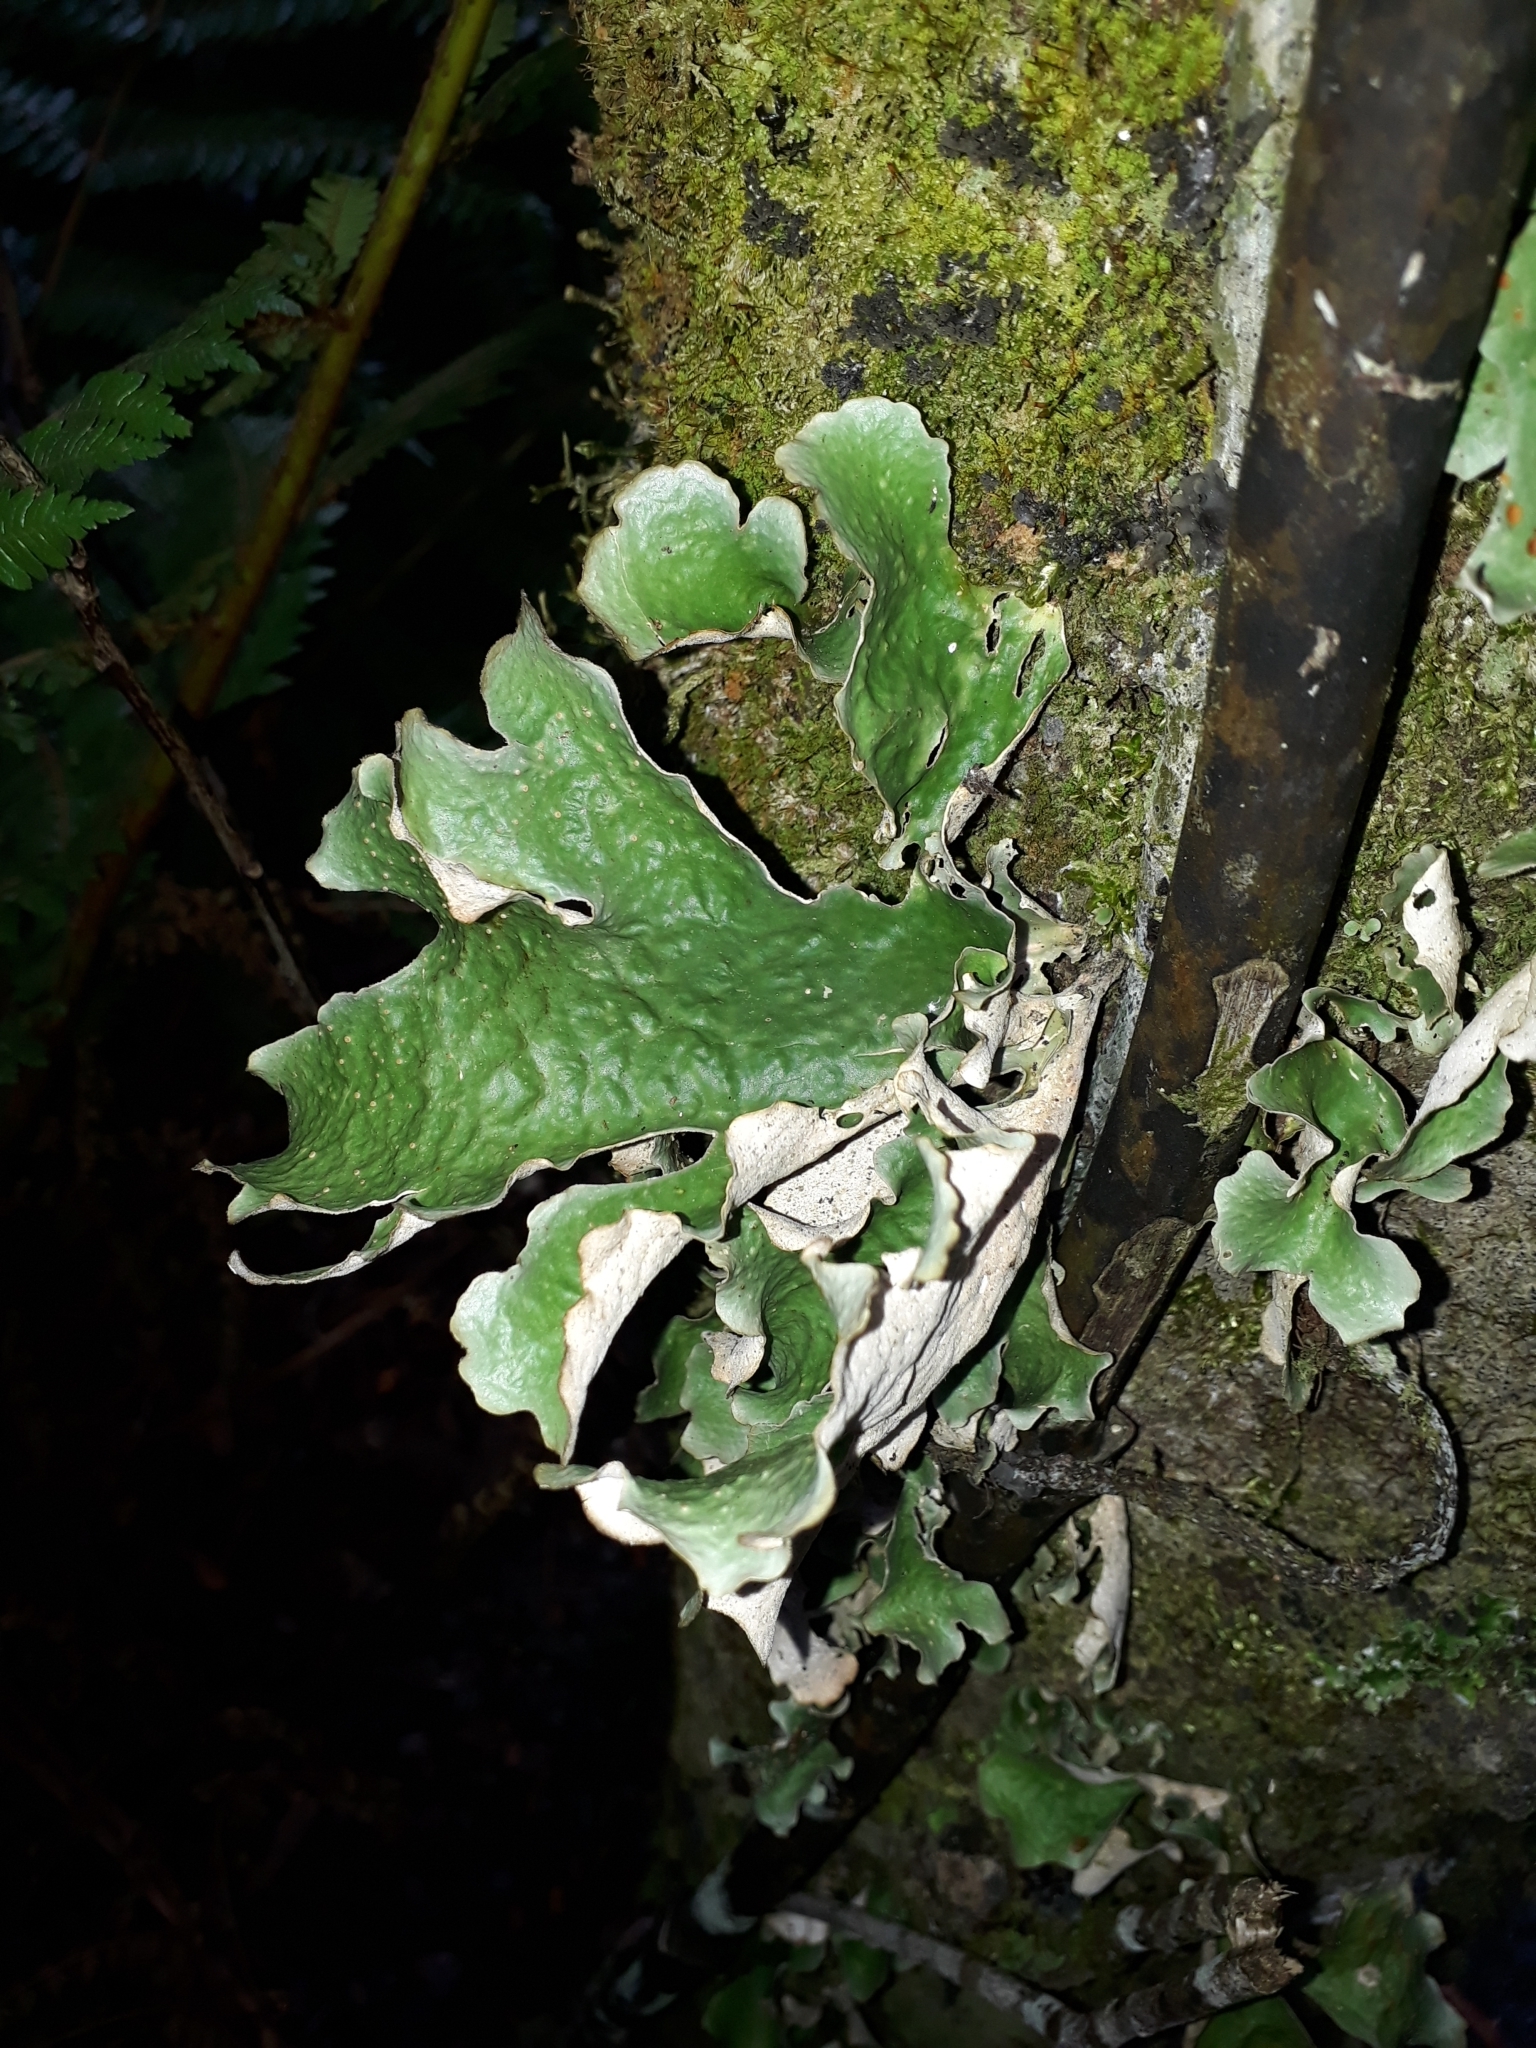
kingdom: Fungi
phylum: Ascomycota
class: Lecanoromycetes
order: Peltigerales
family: Lobariaceae
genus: Sticta
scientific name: Sticta latifrons
